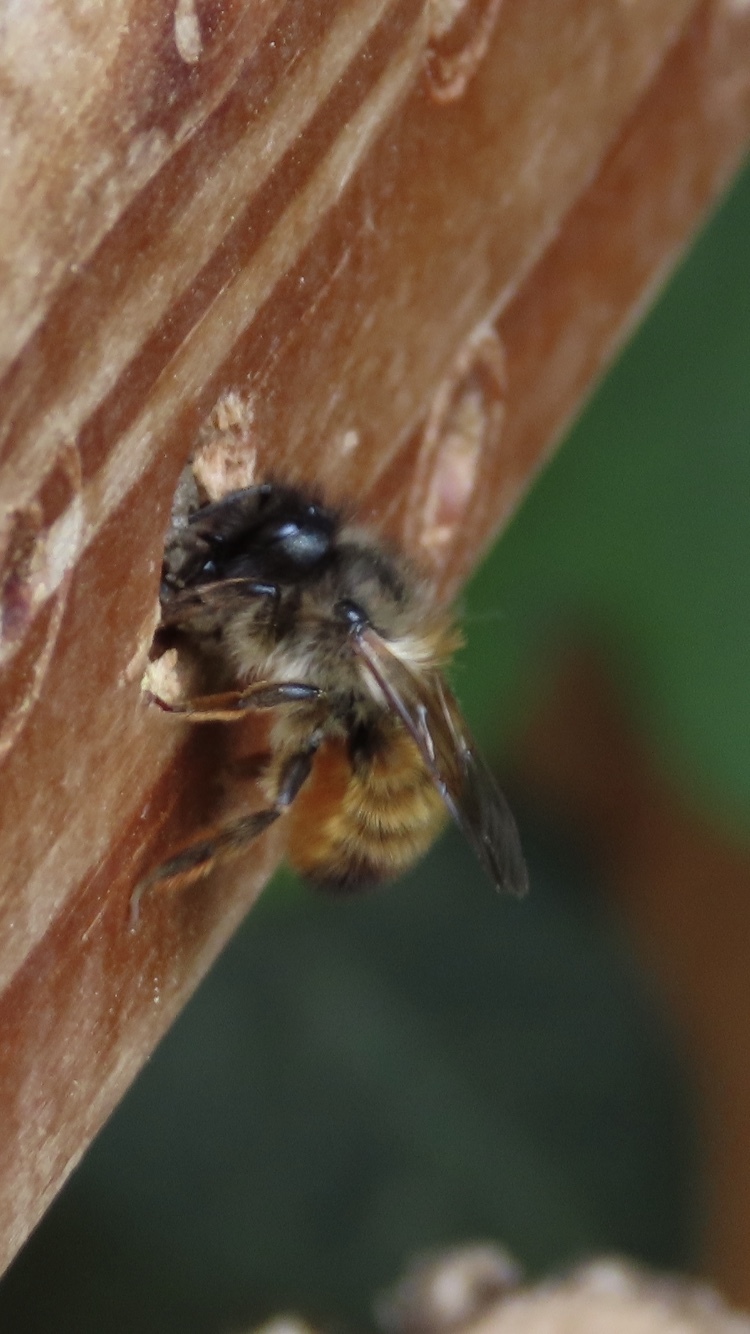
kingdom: Animalia
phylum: Arthropoda
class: Insecta
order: Hymenoptera
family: Megachilidae
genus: Osmia
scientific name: Osmia bicornis
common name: Red mason bee
